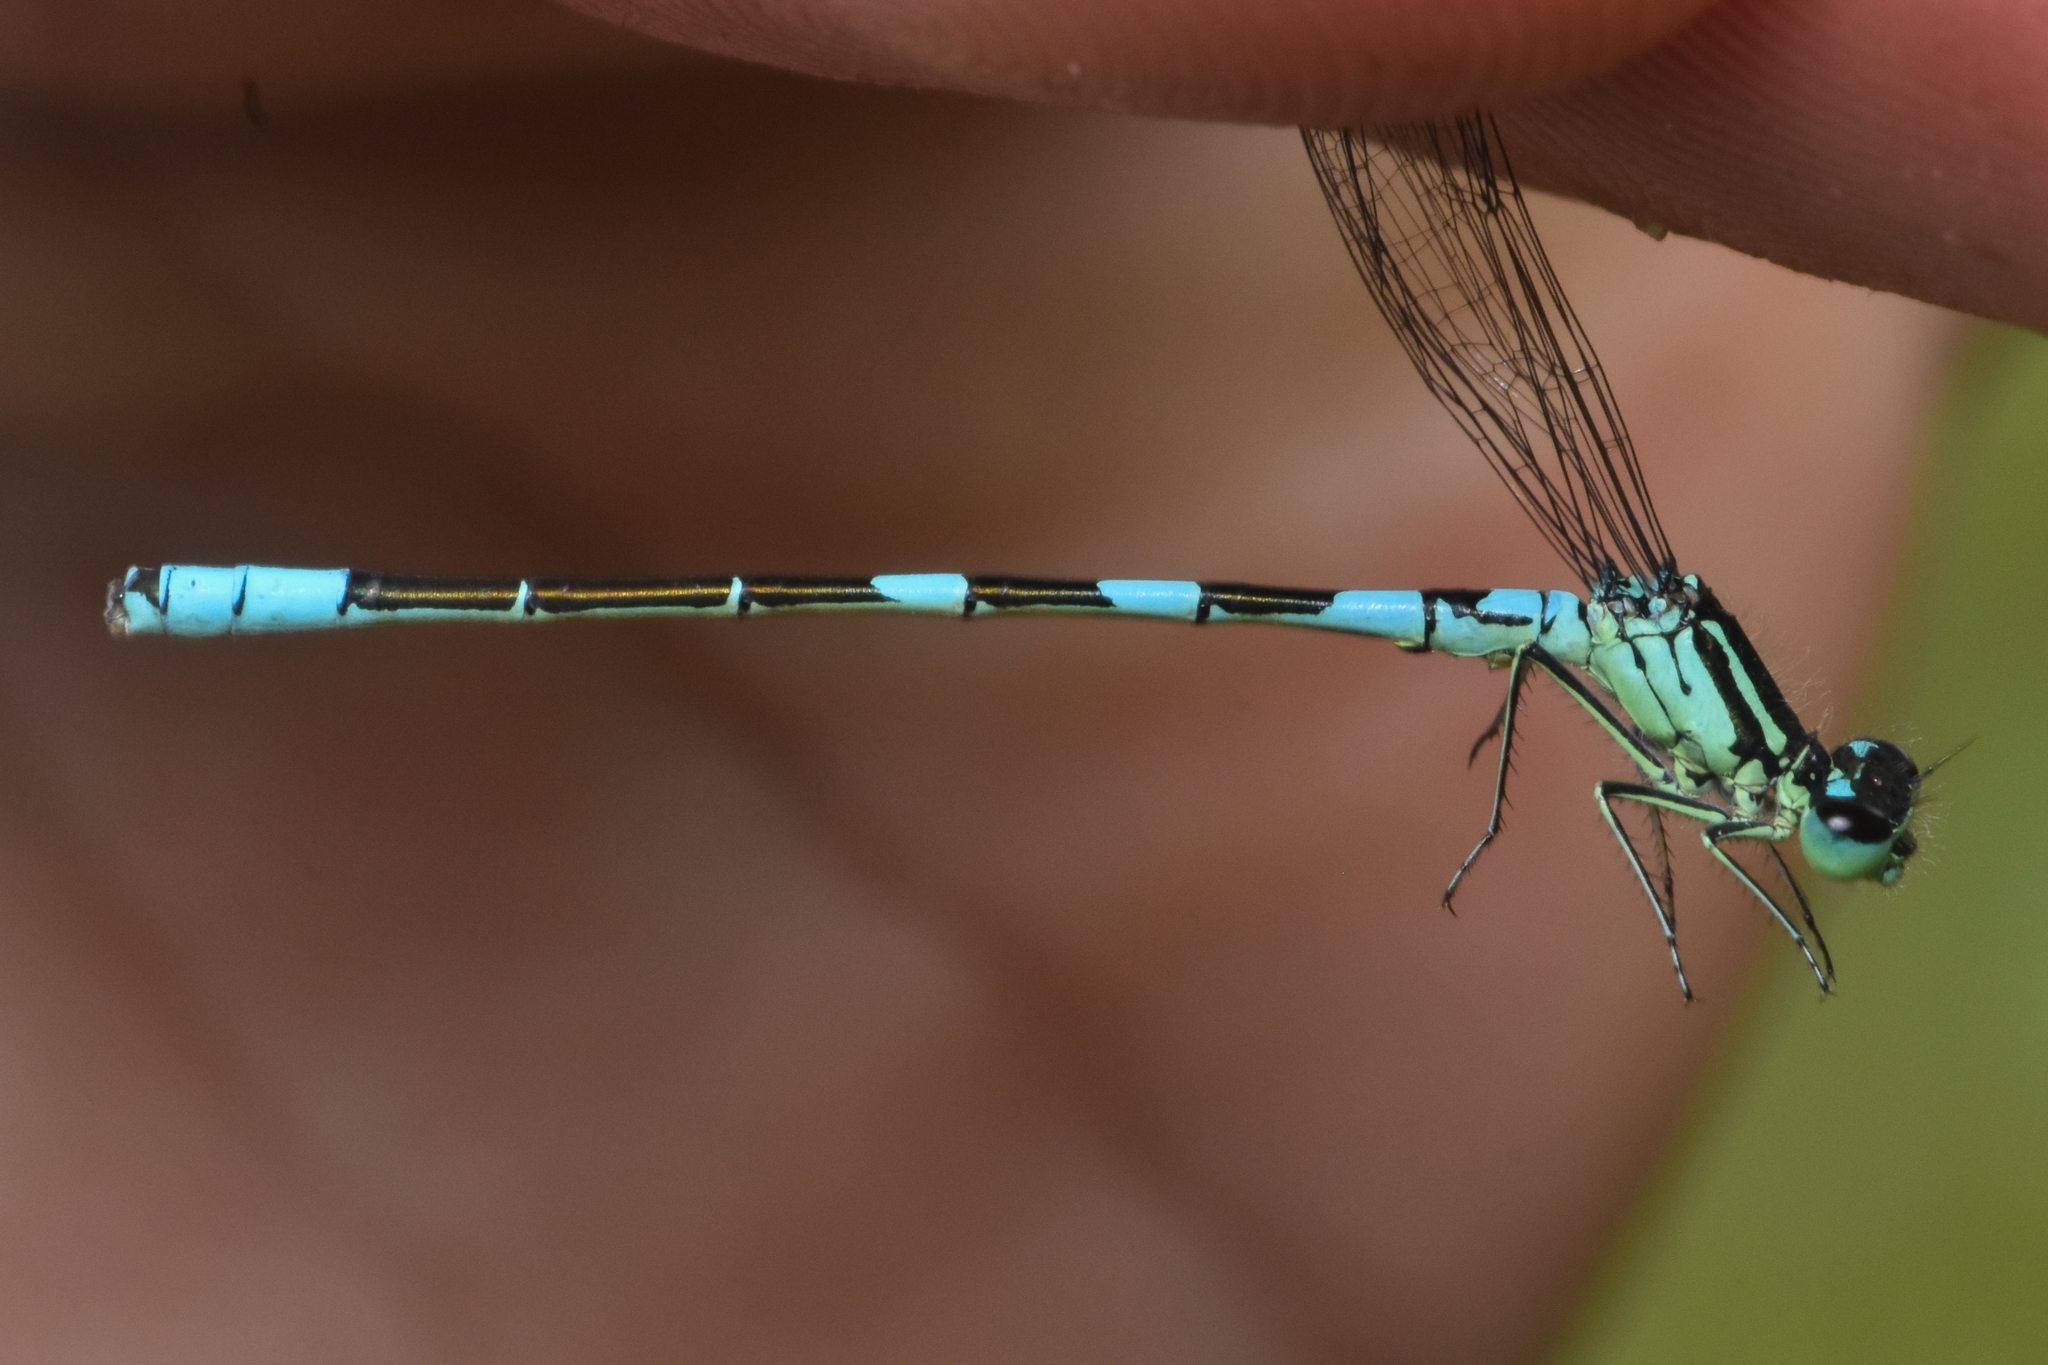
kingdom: Animalia
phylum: Arthropoda
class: Insecta
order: Odonata
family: Coenagrionidae
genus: Coenagrion
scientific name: Coenagrion resolutum
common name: Taiga bluet
